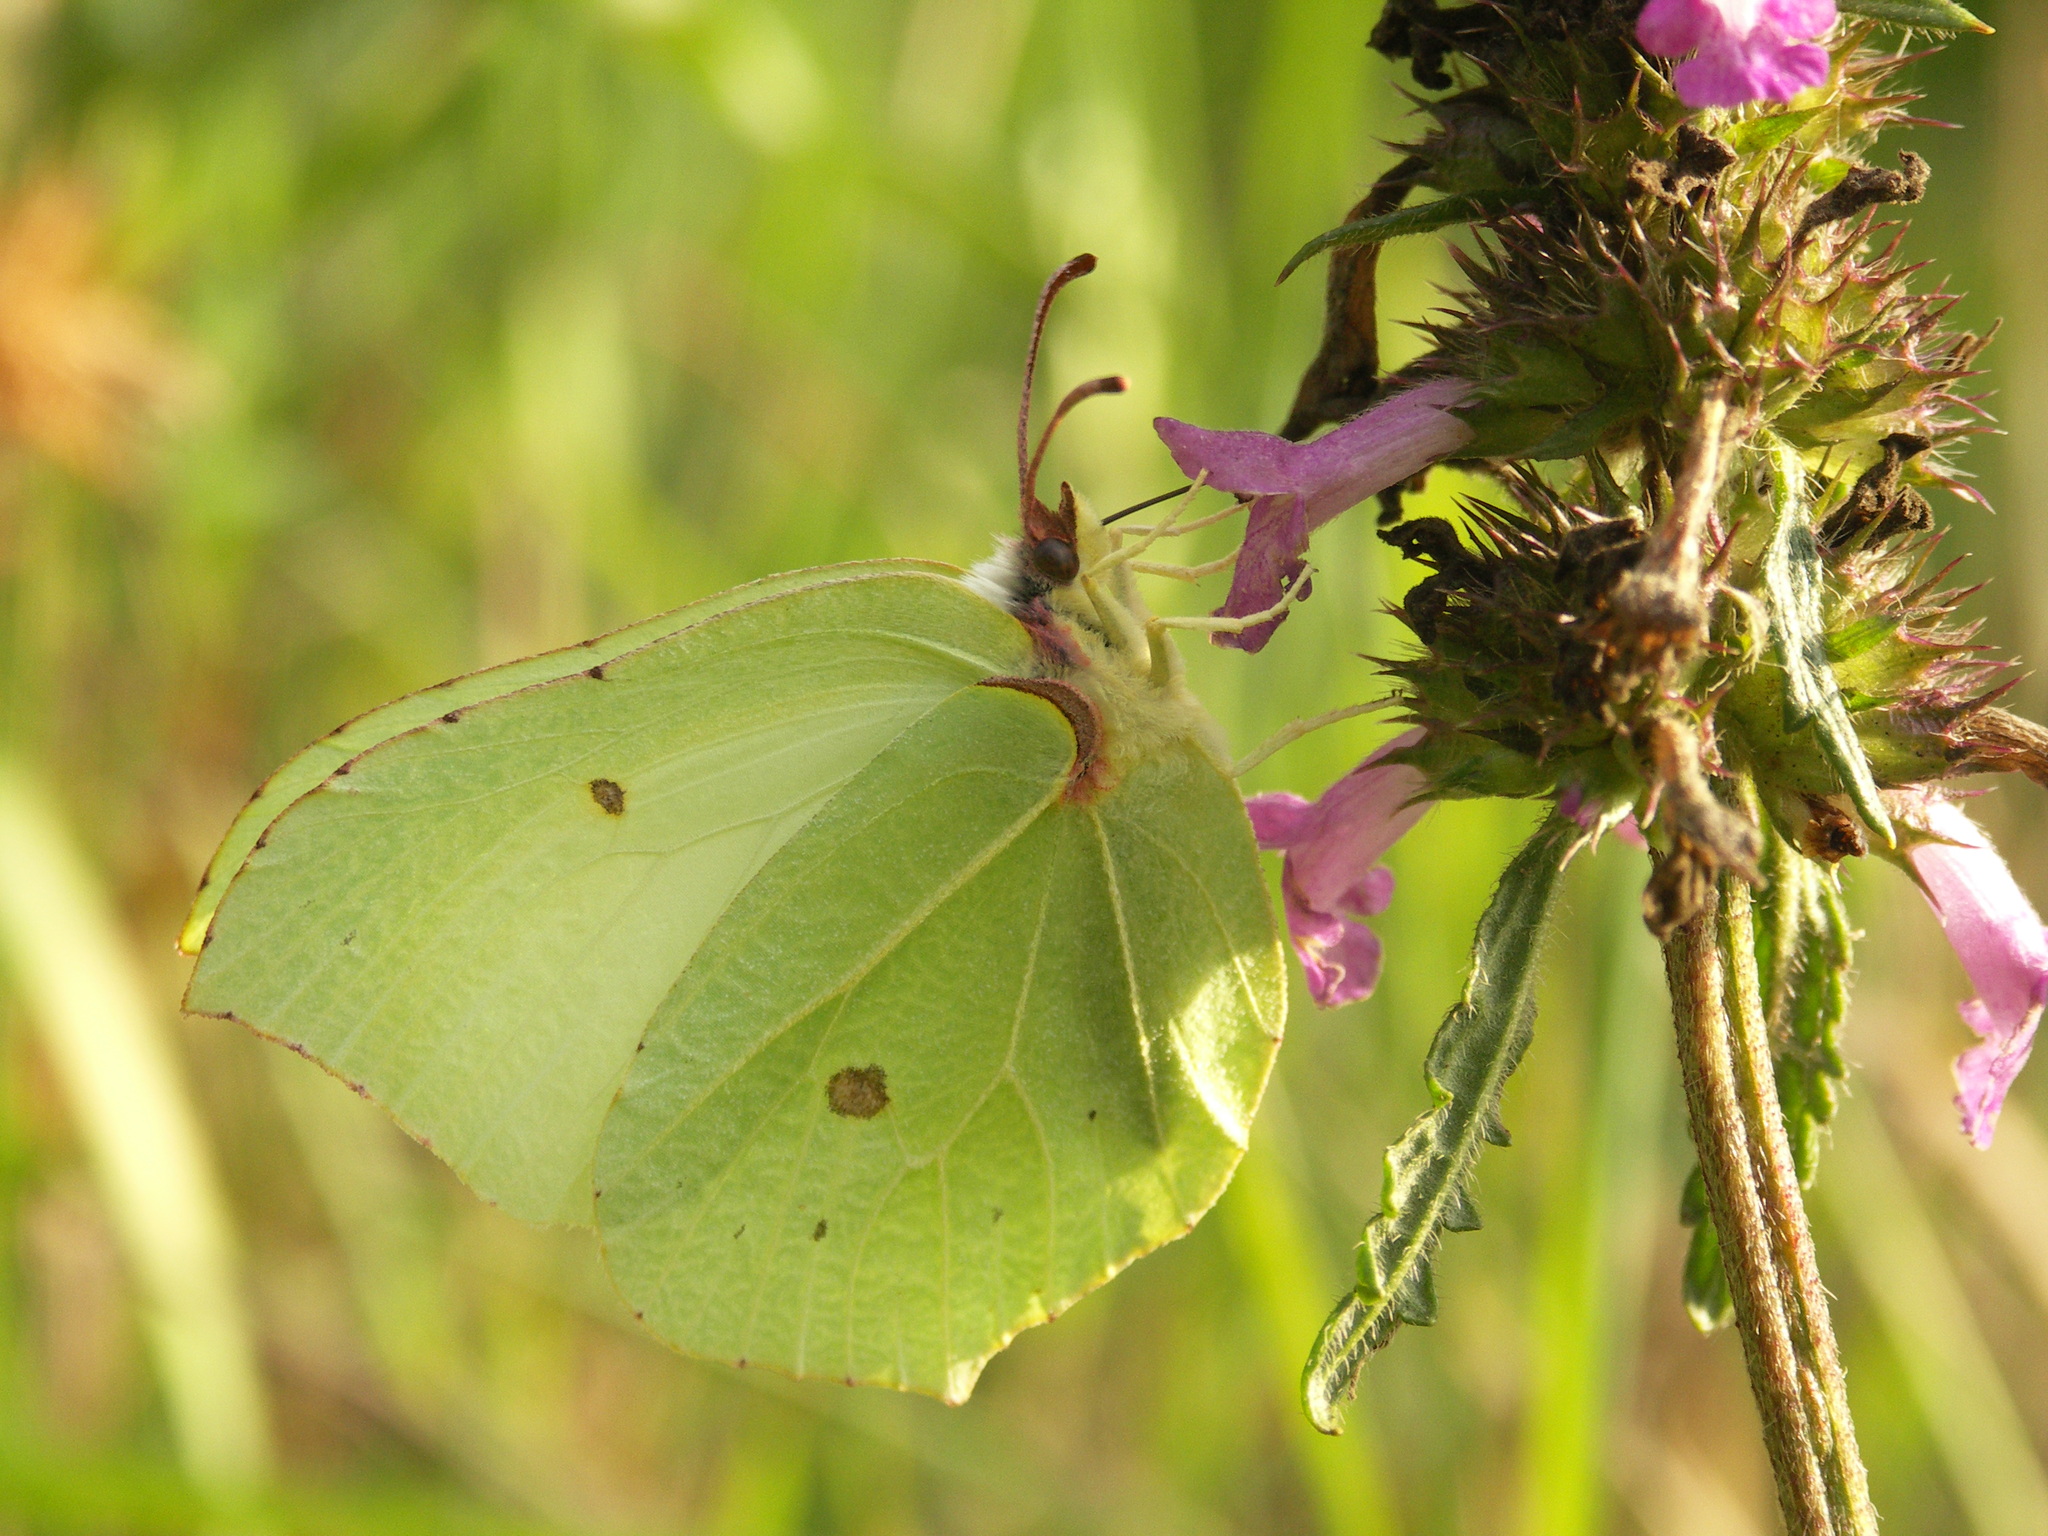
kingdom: Animalia
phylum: Arthropoda
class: Insecta
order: Lepidoptera
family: Pieridae
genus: Gonepteryx
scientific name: Gonepteryx rhamni
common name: Brimstone
